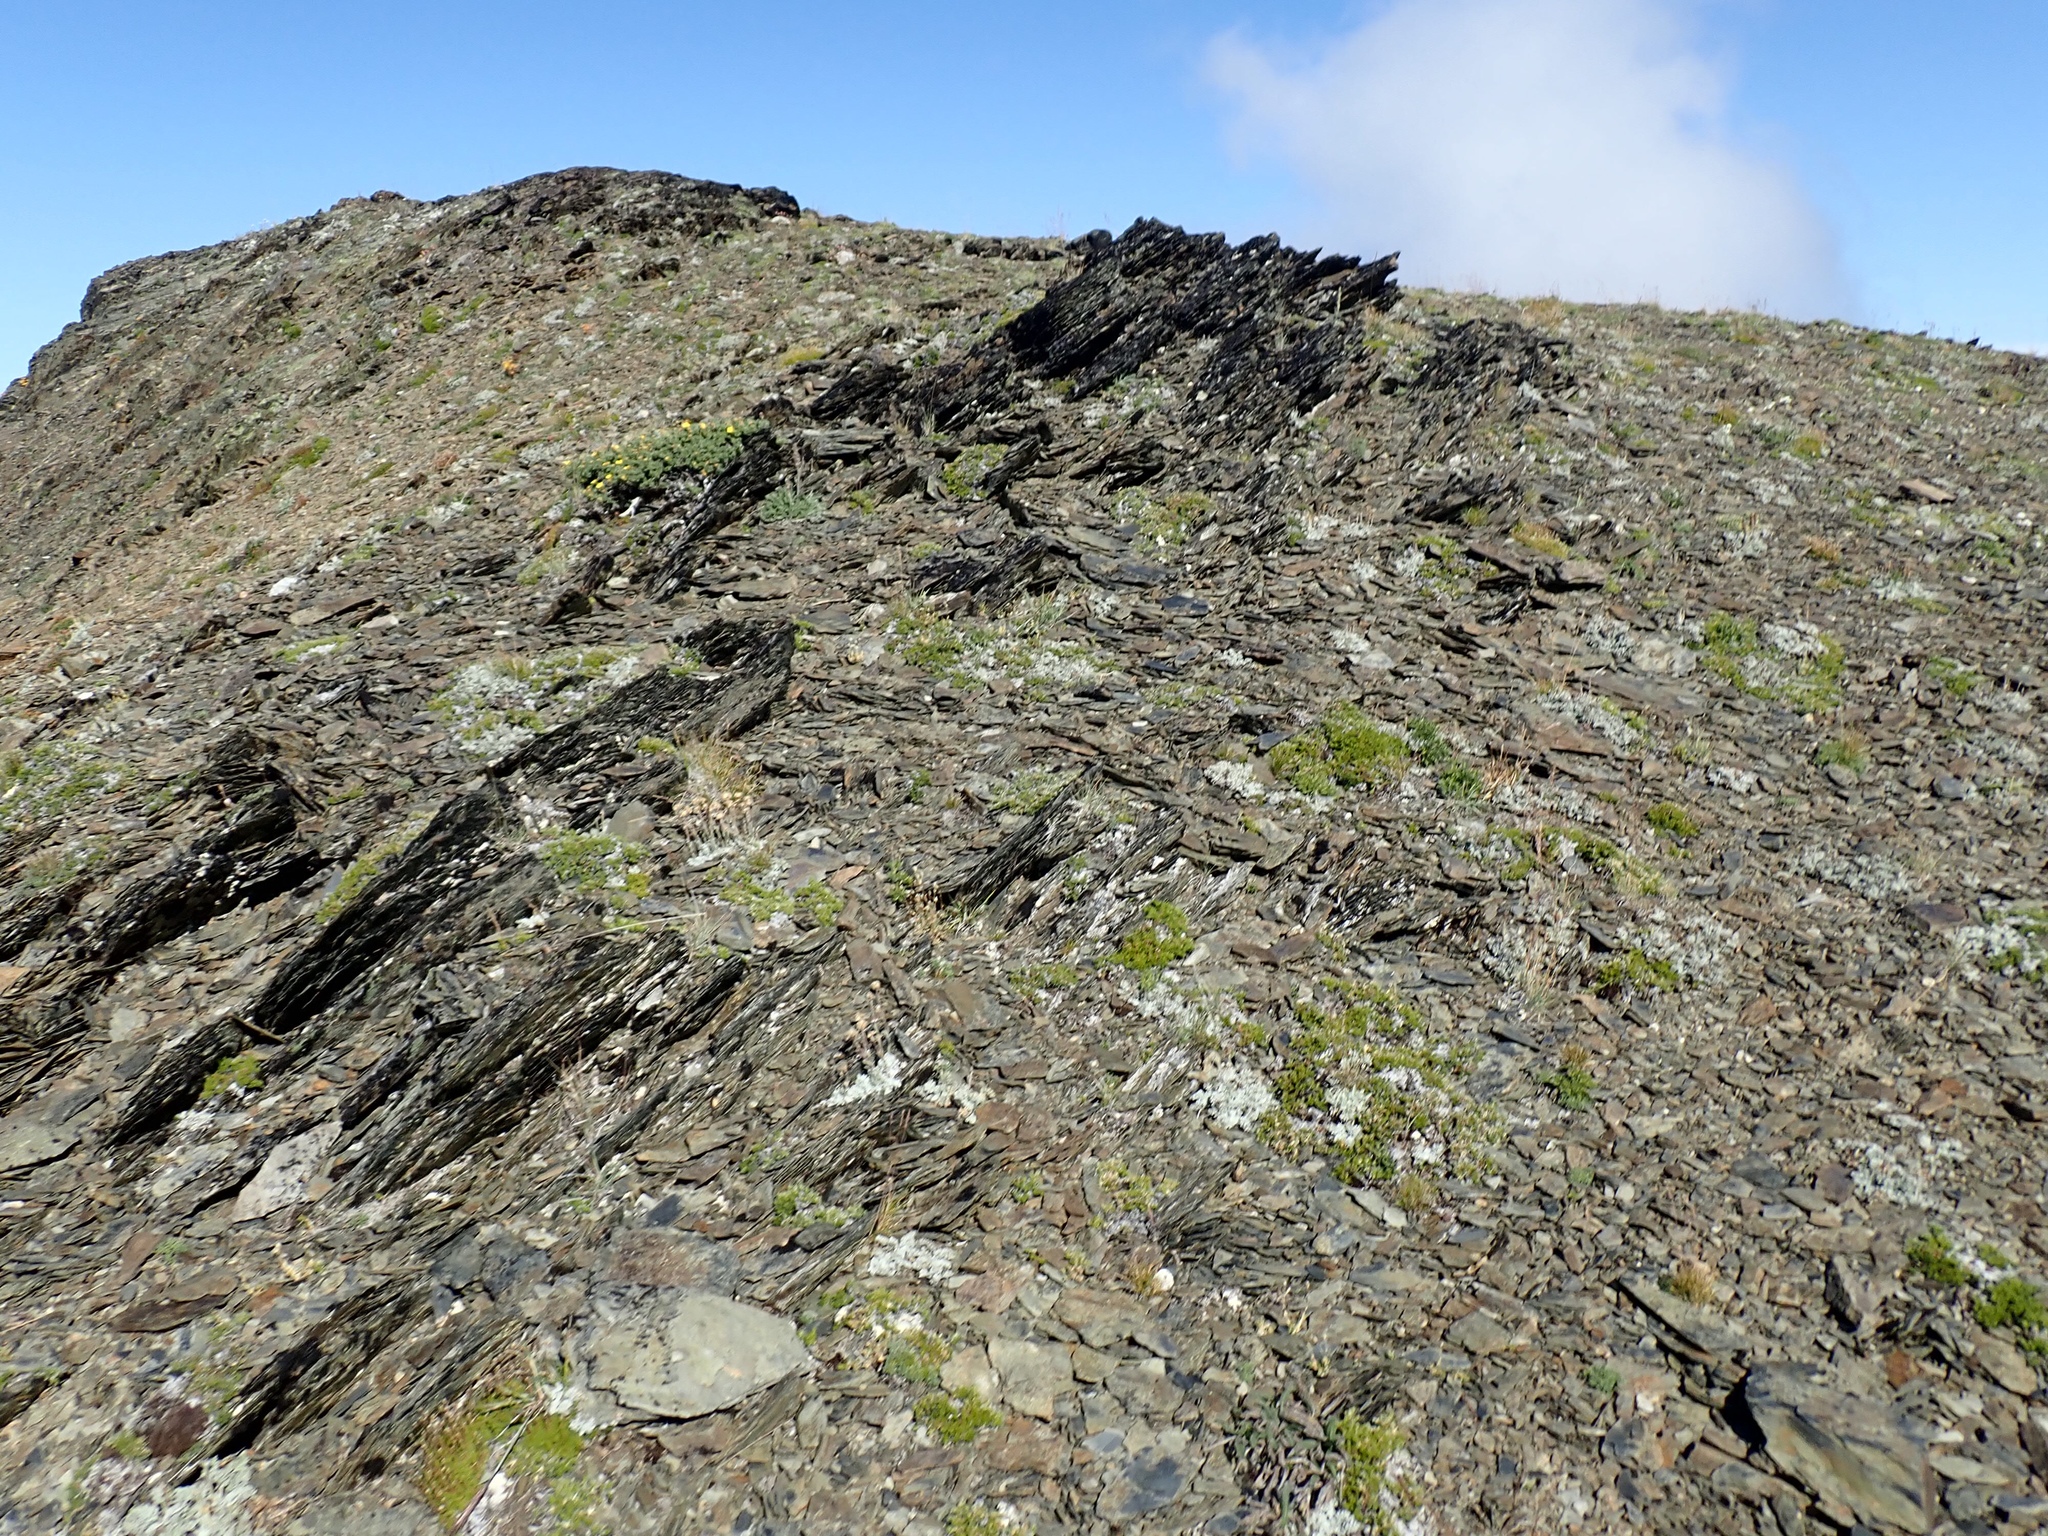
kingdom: Plantae
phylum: Tracheophyta
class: Magnoliopsida
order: Caryophyllales
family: Polygonaceae
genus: Eriogonum
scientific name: Eriogonum ovalifolium
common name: Cushion buckwheat
